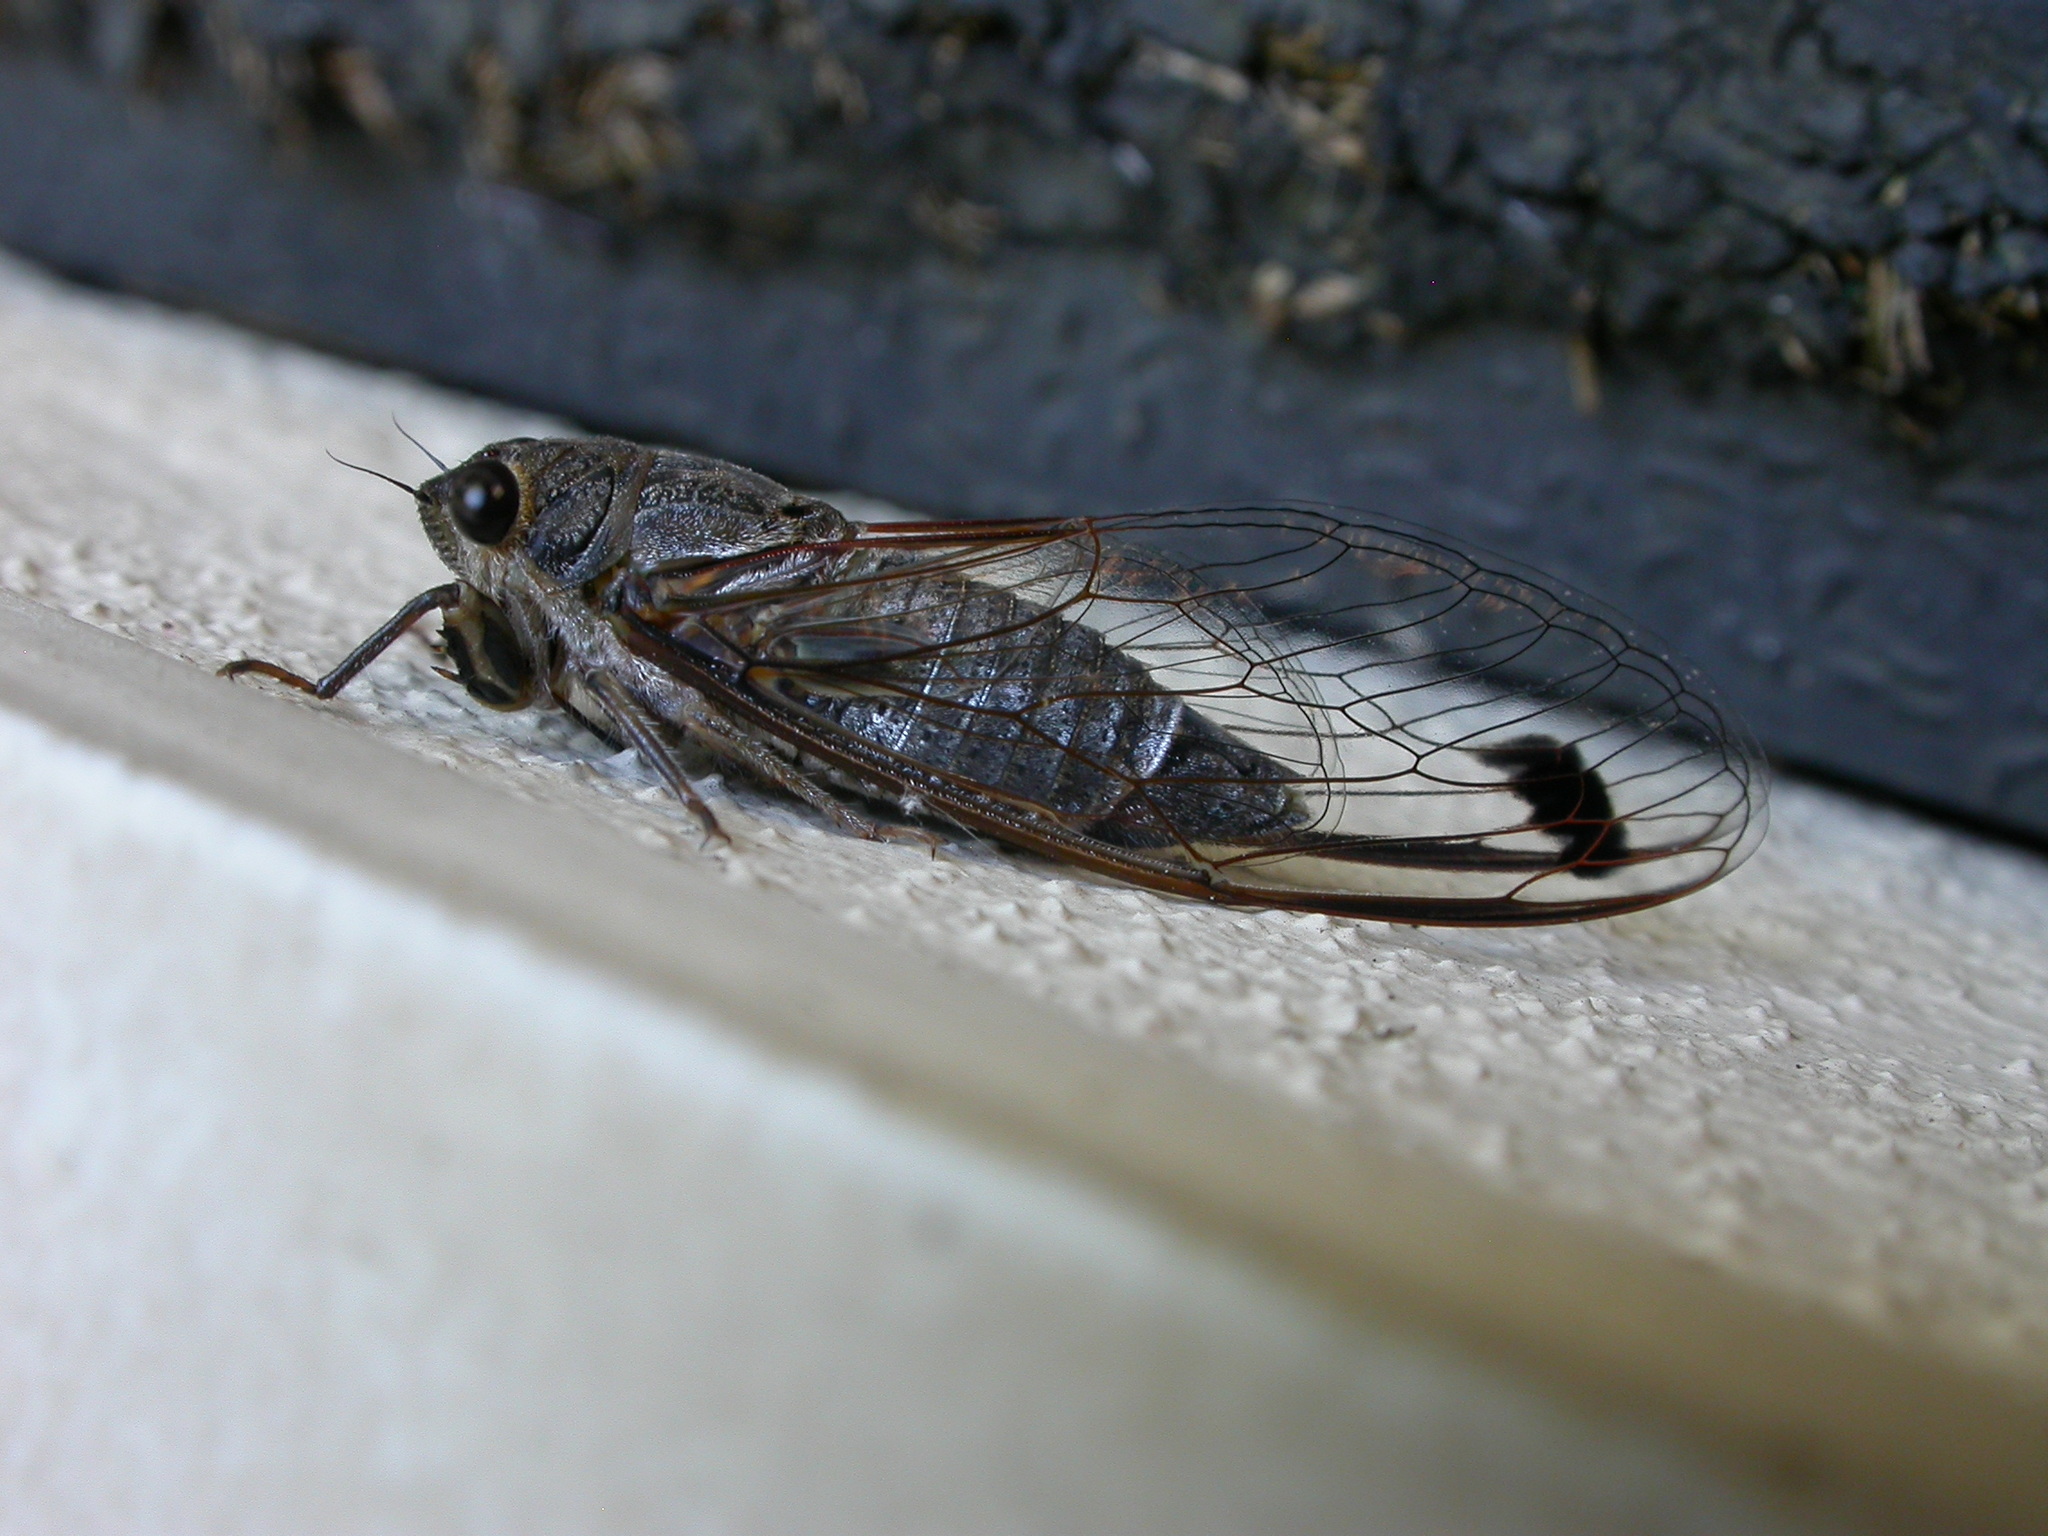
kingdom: Animalia
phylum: Arthropoda
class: Insecta
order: Hemiptera
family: Cicadidae
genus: Galanga
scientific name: Galanga labeculata
